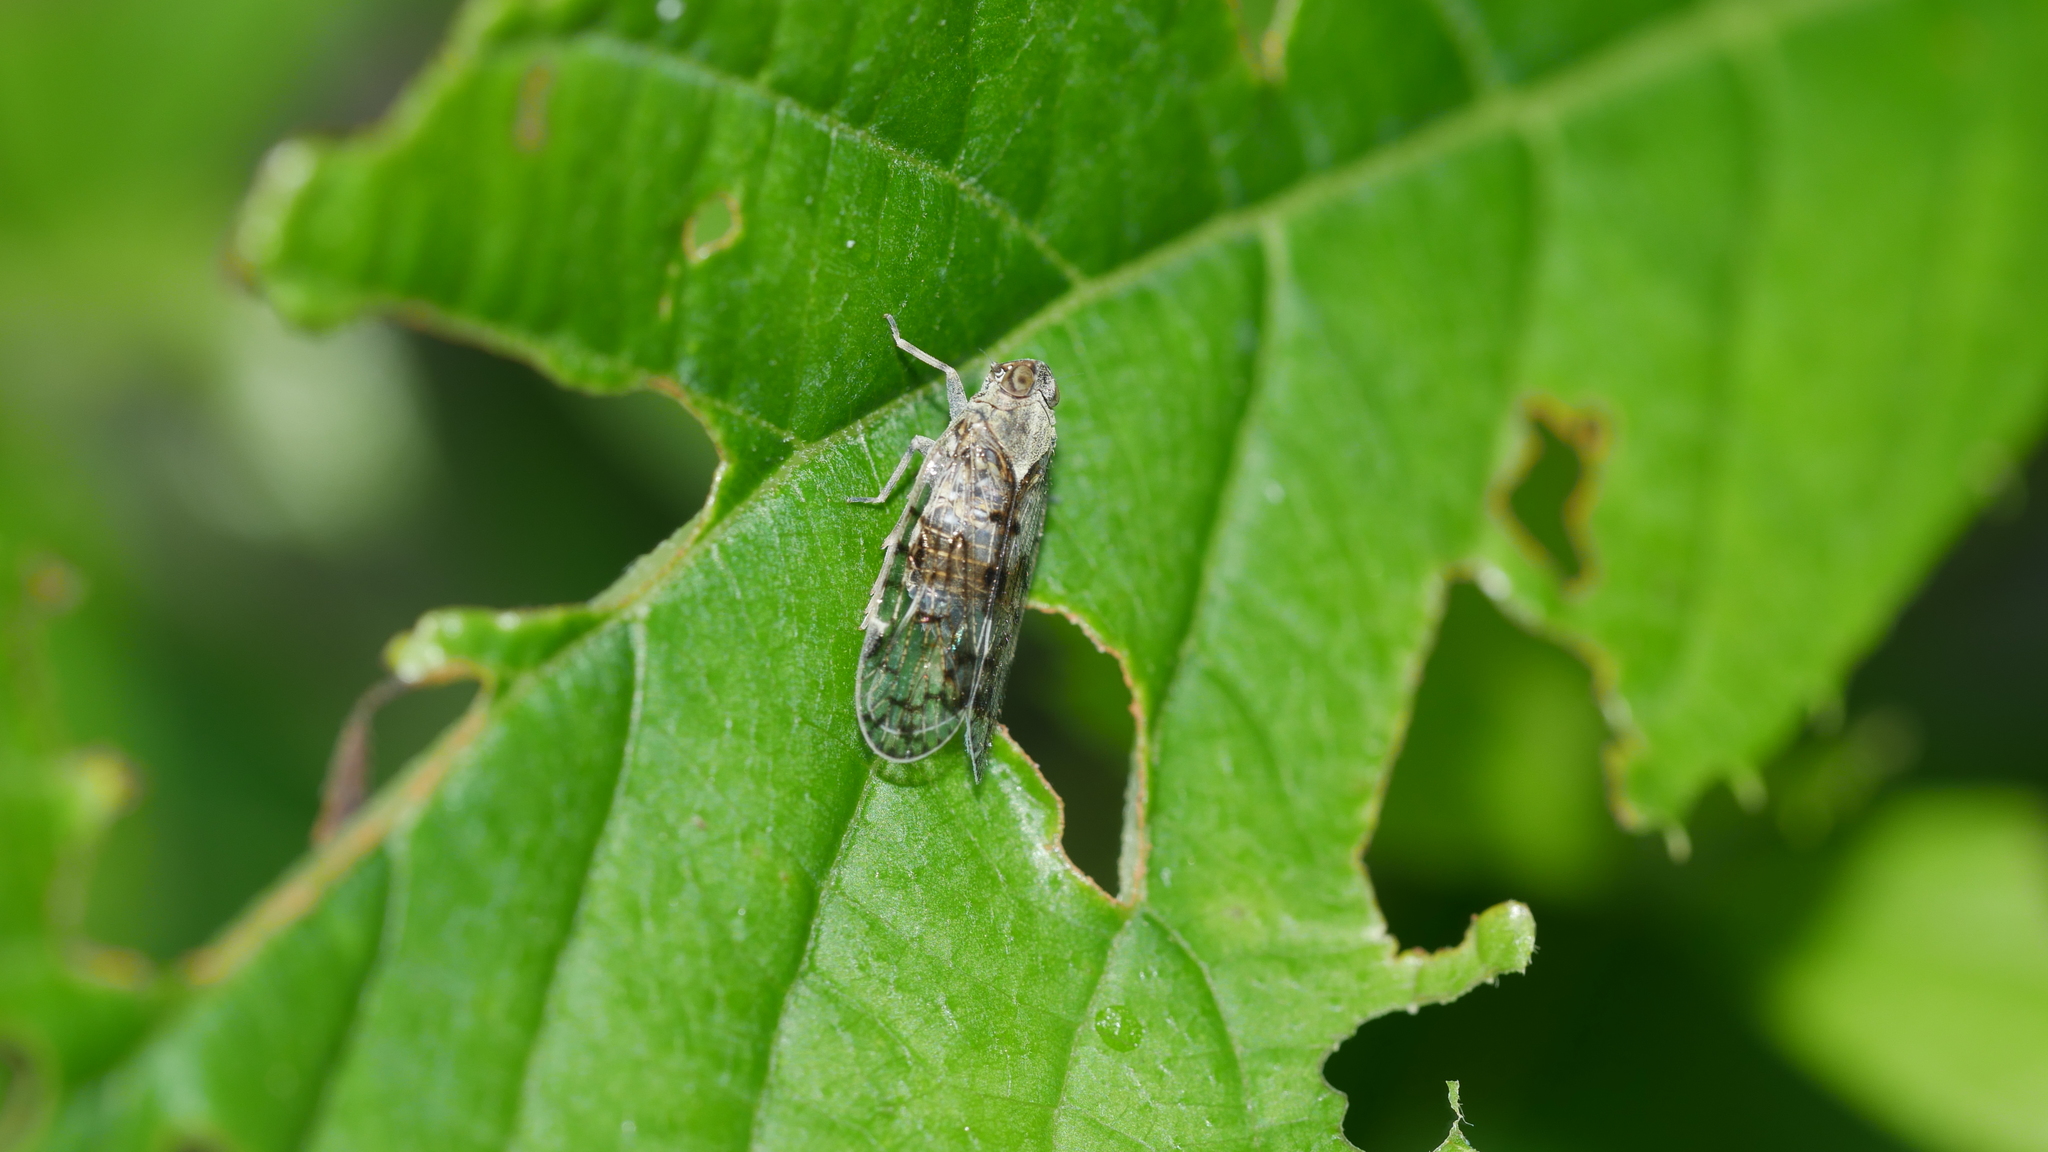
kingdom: Animalia
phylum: Arthropoda
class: Insecta
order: Hemiptera
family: Cixiidae
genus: Melanoliarus
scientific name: Melanoliarus placitus
